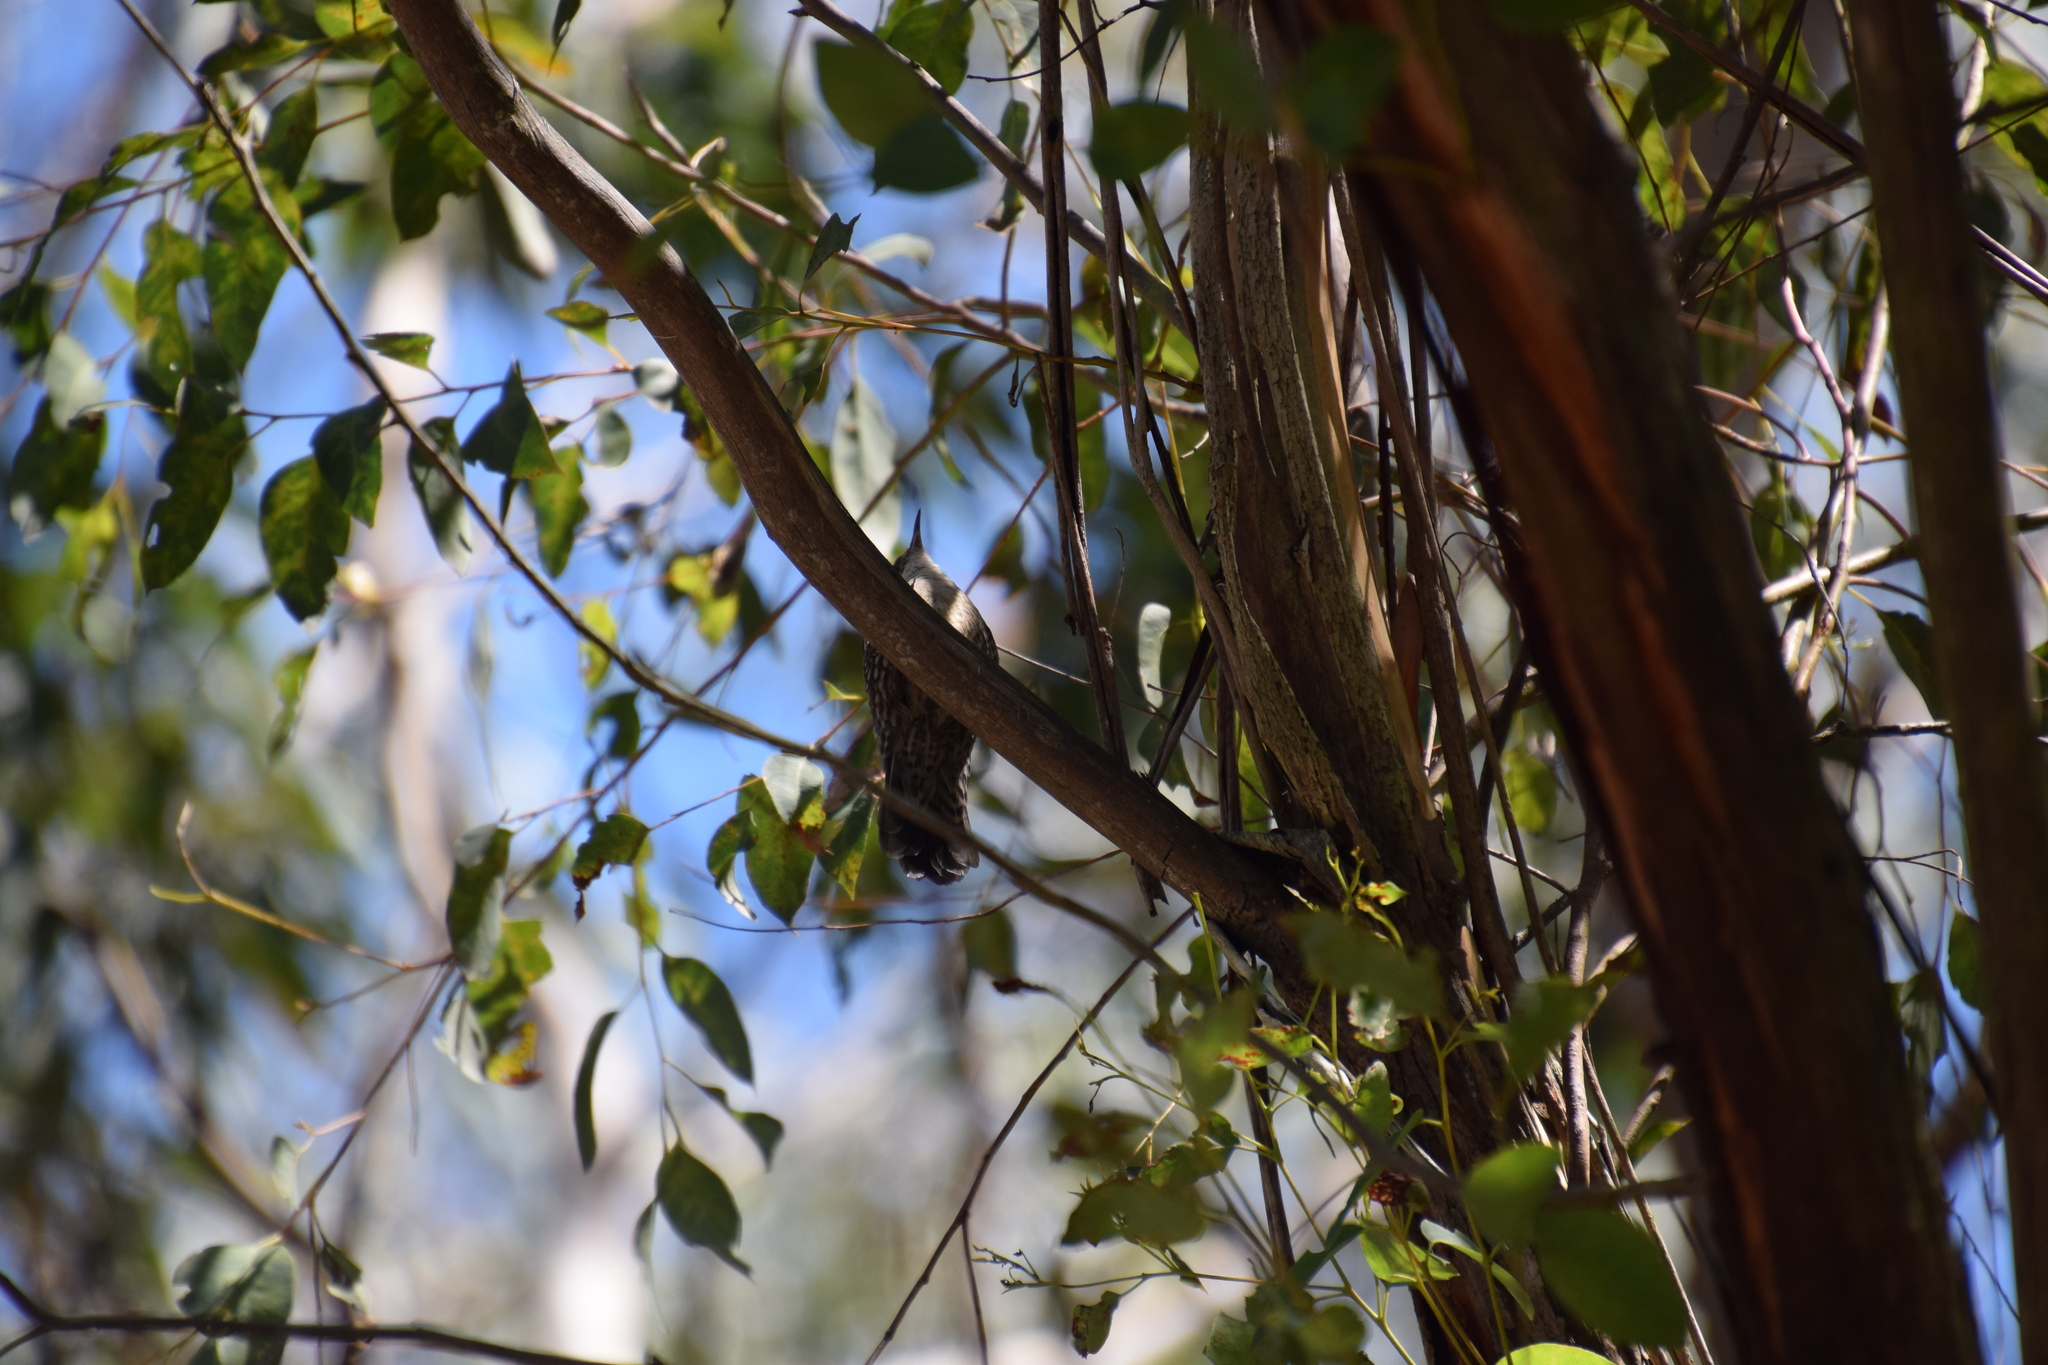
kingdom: Animalia
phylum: Chordata
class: Aves
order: Passeriformes
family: Climacteridae
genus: Cormobates
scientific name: Cormobates leucophaea
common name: White-throated treecreeper
